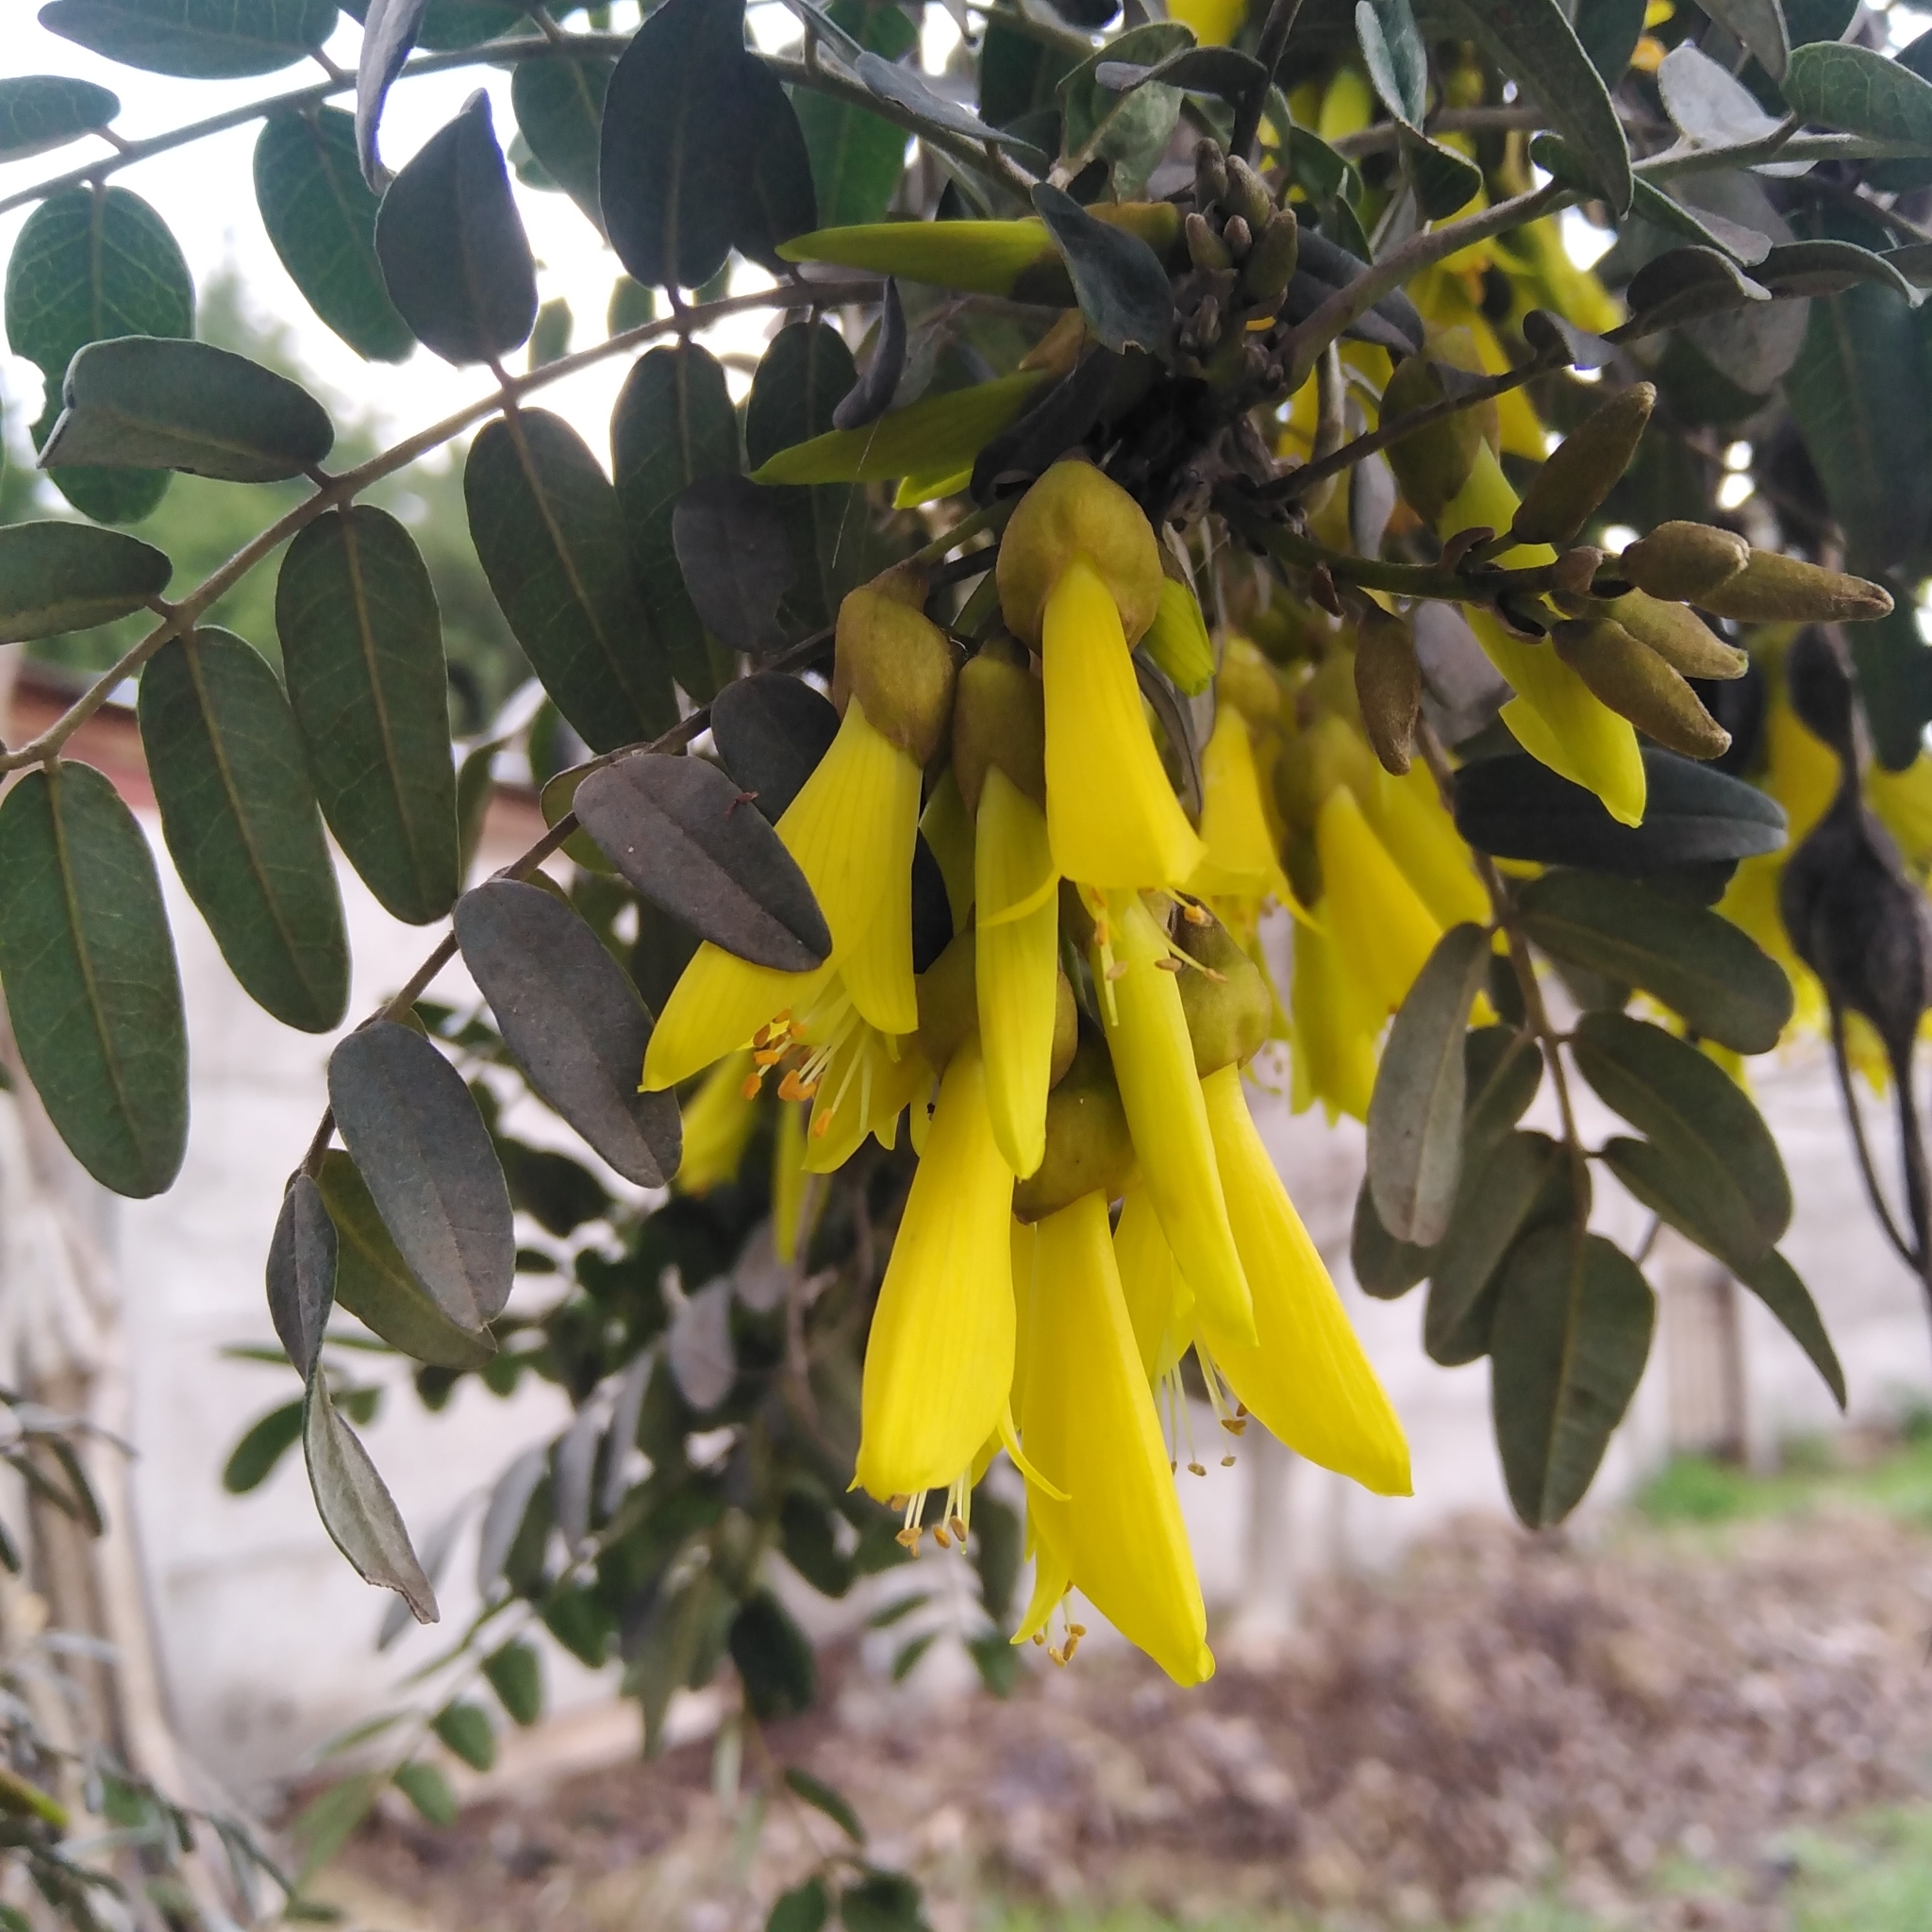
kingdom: Plantae
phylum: Tracheophyta
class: Magnoliopsida
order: Fabales
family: Fabaceae
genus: Sophora
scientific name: Sophora macrocarpa
